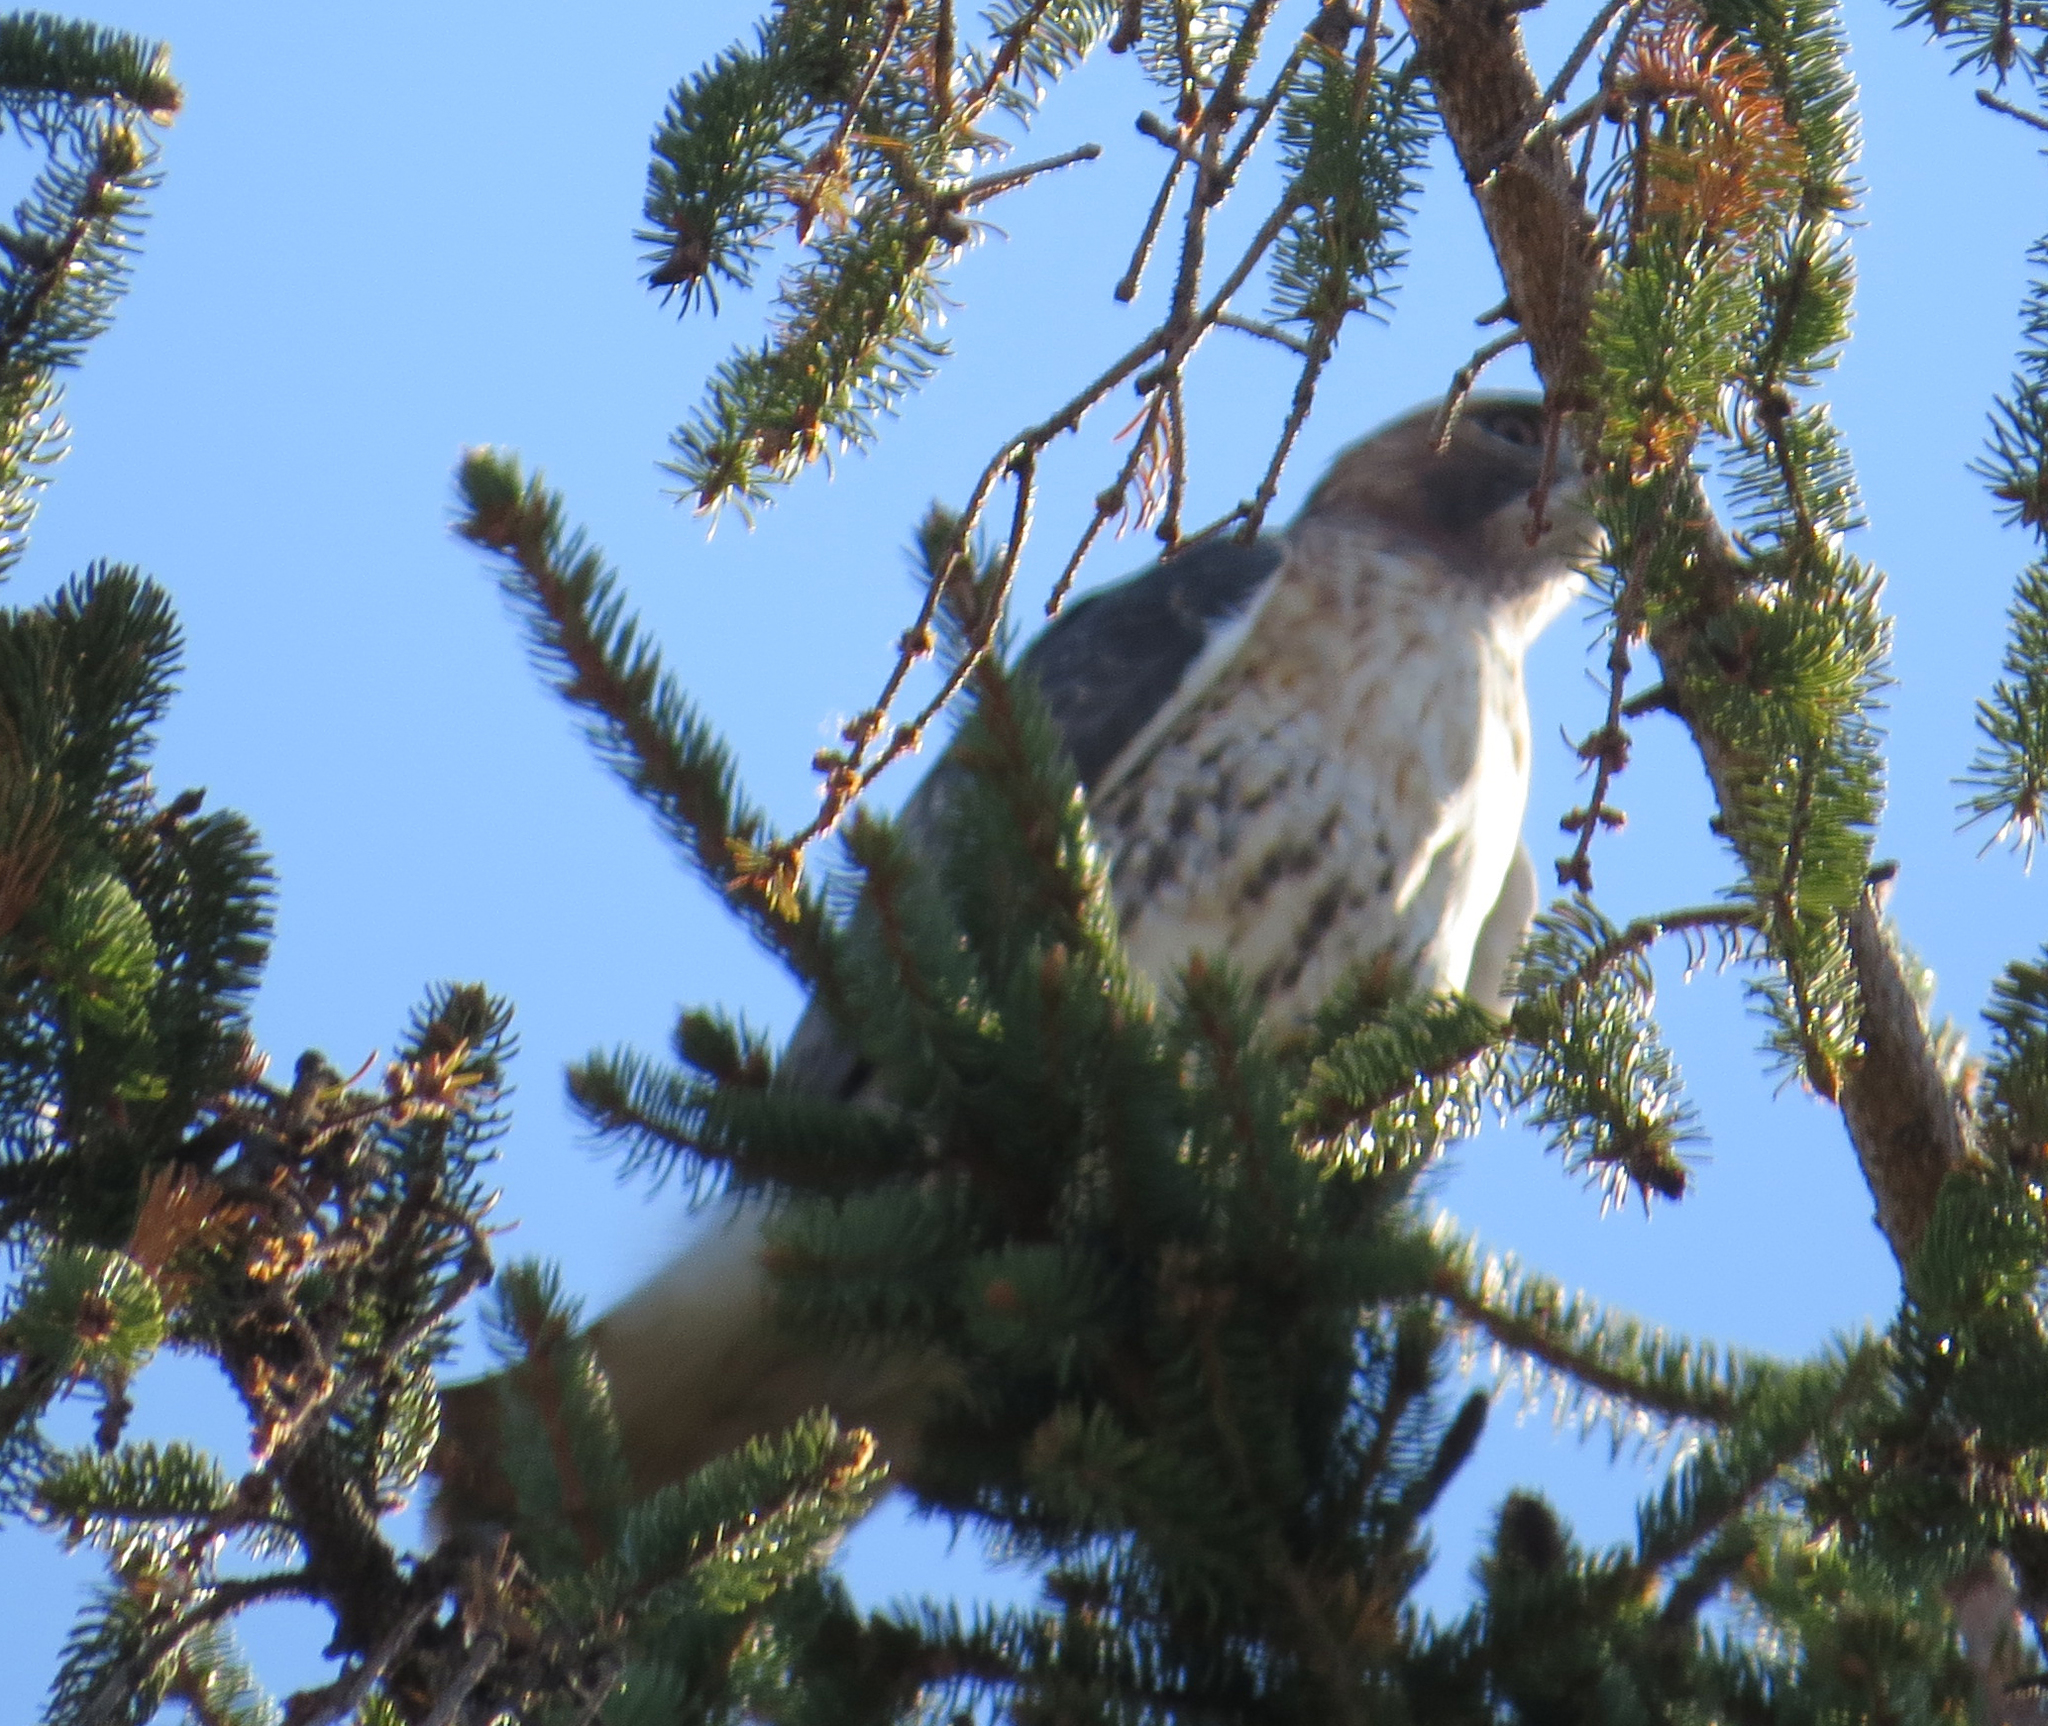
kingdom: Animalia
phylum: Chordata
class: Aves
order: Accipitriformes
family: Accipitridae
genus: Buteo
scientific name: Buteo jamaicensis
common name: Red-tailed hawk
